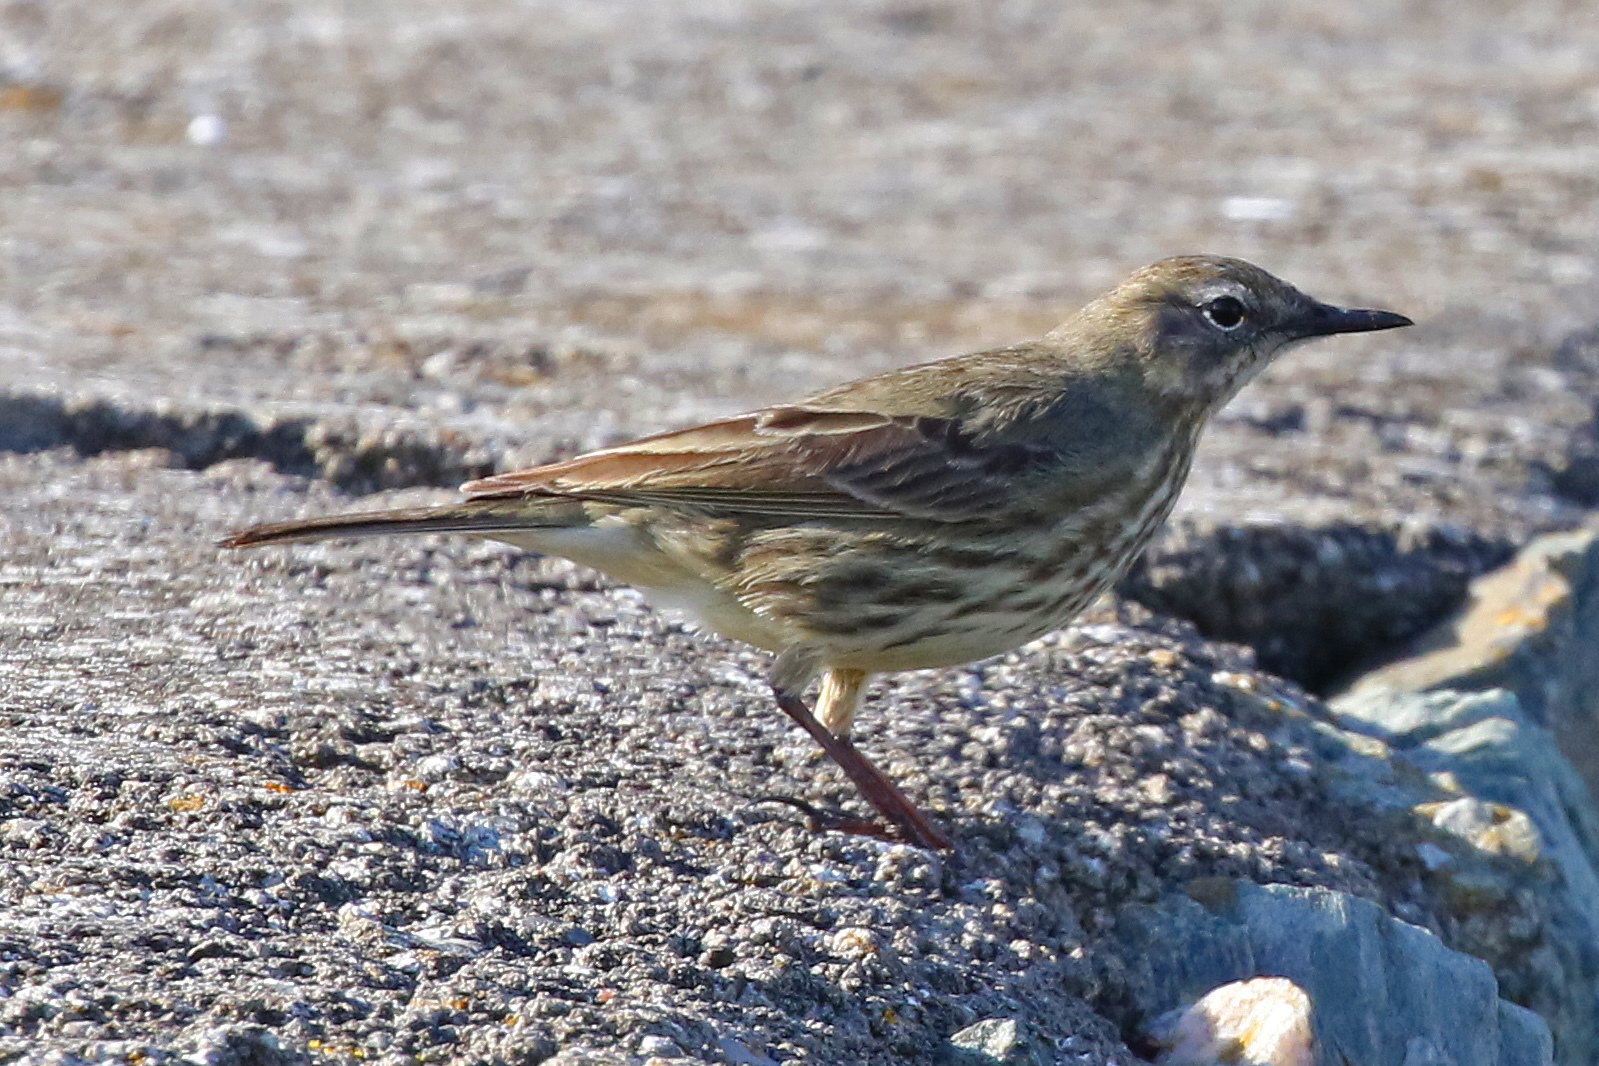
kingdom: Animalia
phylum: Chordata
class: Aves
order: Passeriformes
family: Motacillidae
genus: Anthus
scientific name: Anthus petrosus
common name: Eurasian rock pipit
